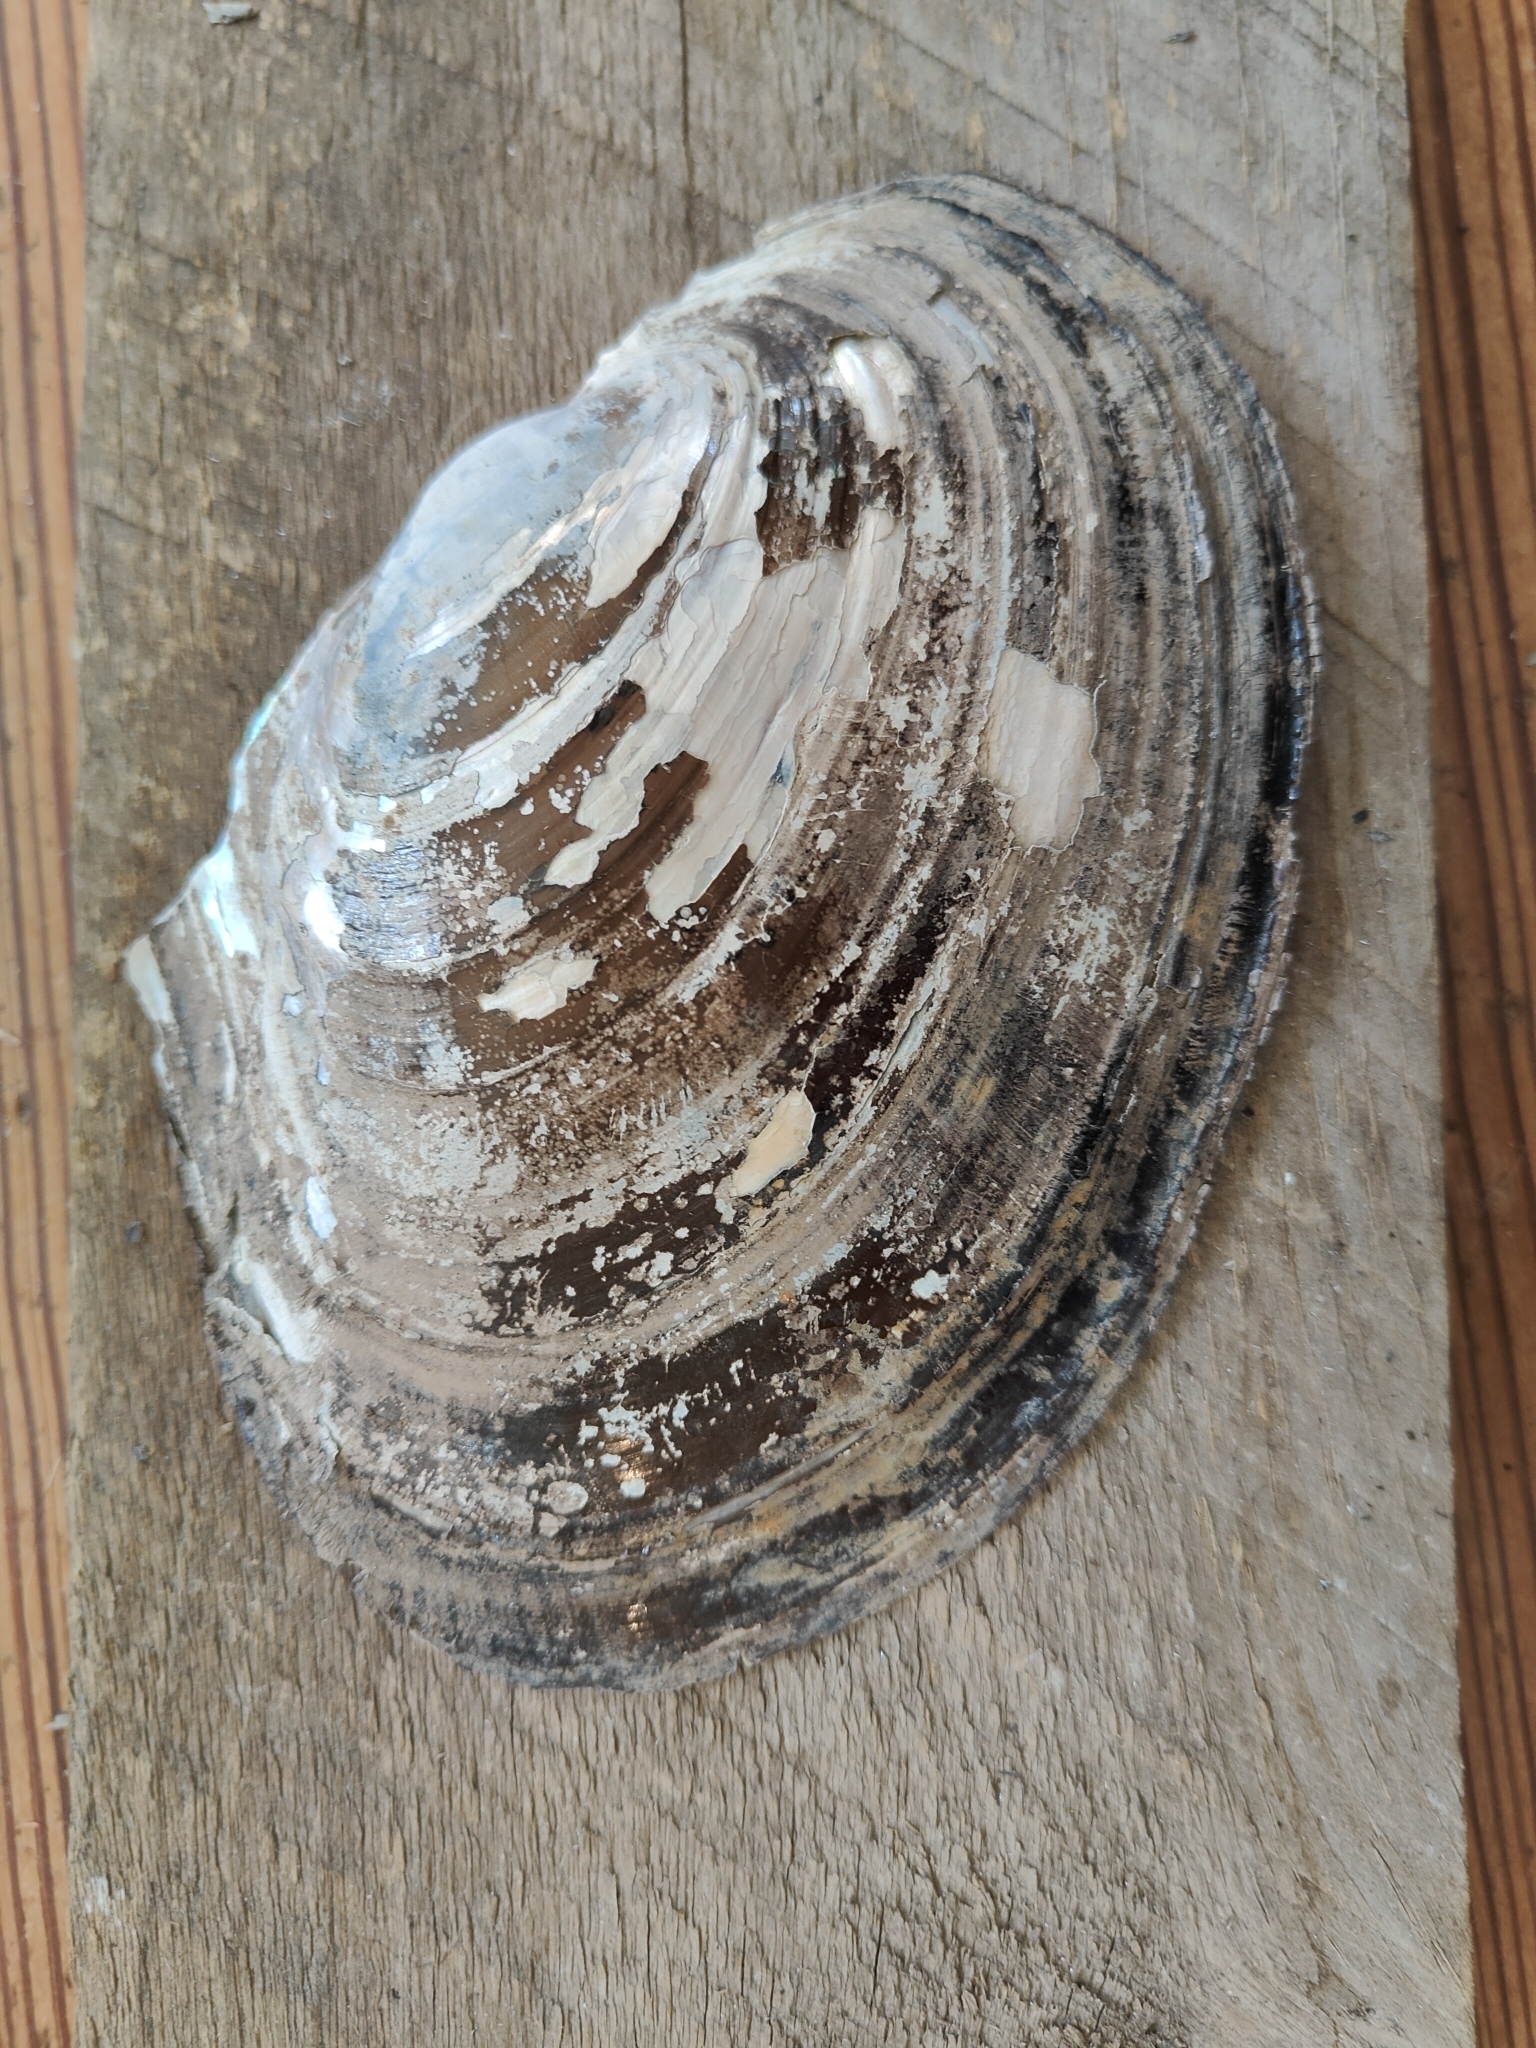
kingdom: Animalia
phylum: Mollusca
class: Bivalvia
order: Unionida
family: Unionidae
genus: Potamilus
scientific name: Potamilus ohiensis
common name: Pink papershell
